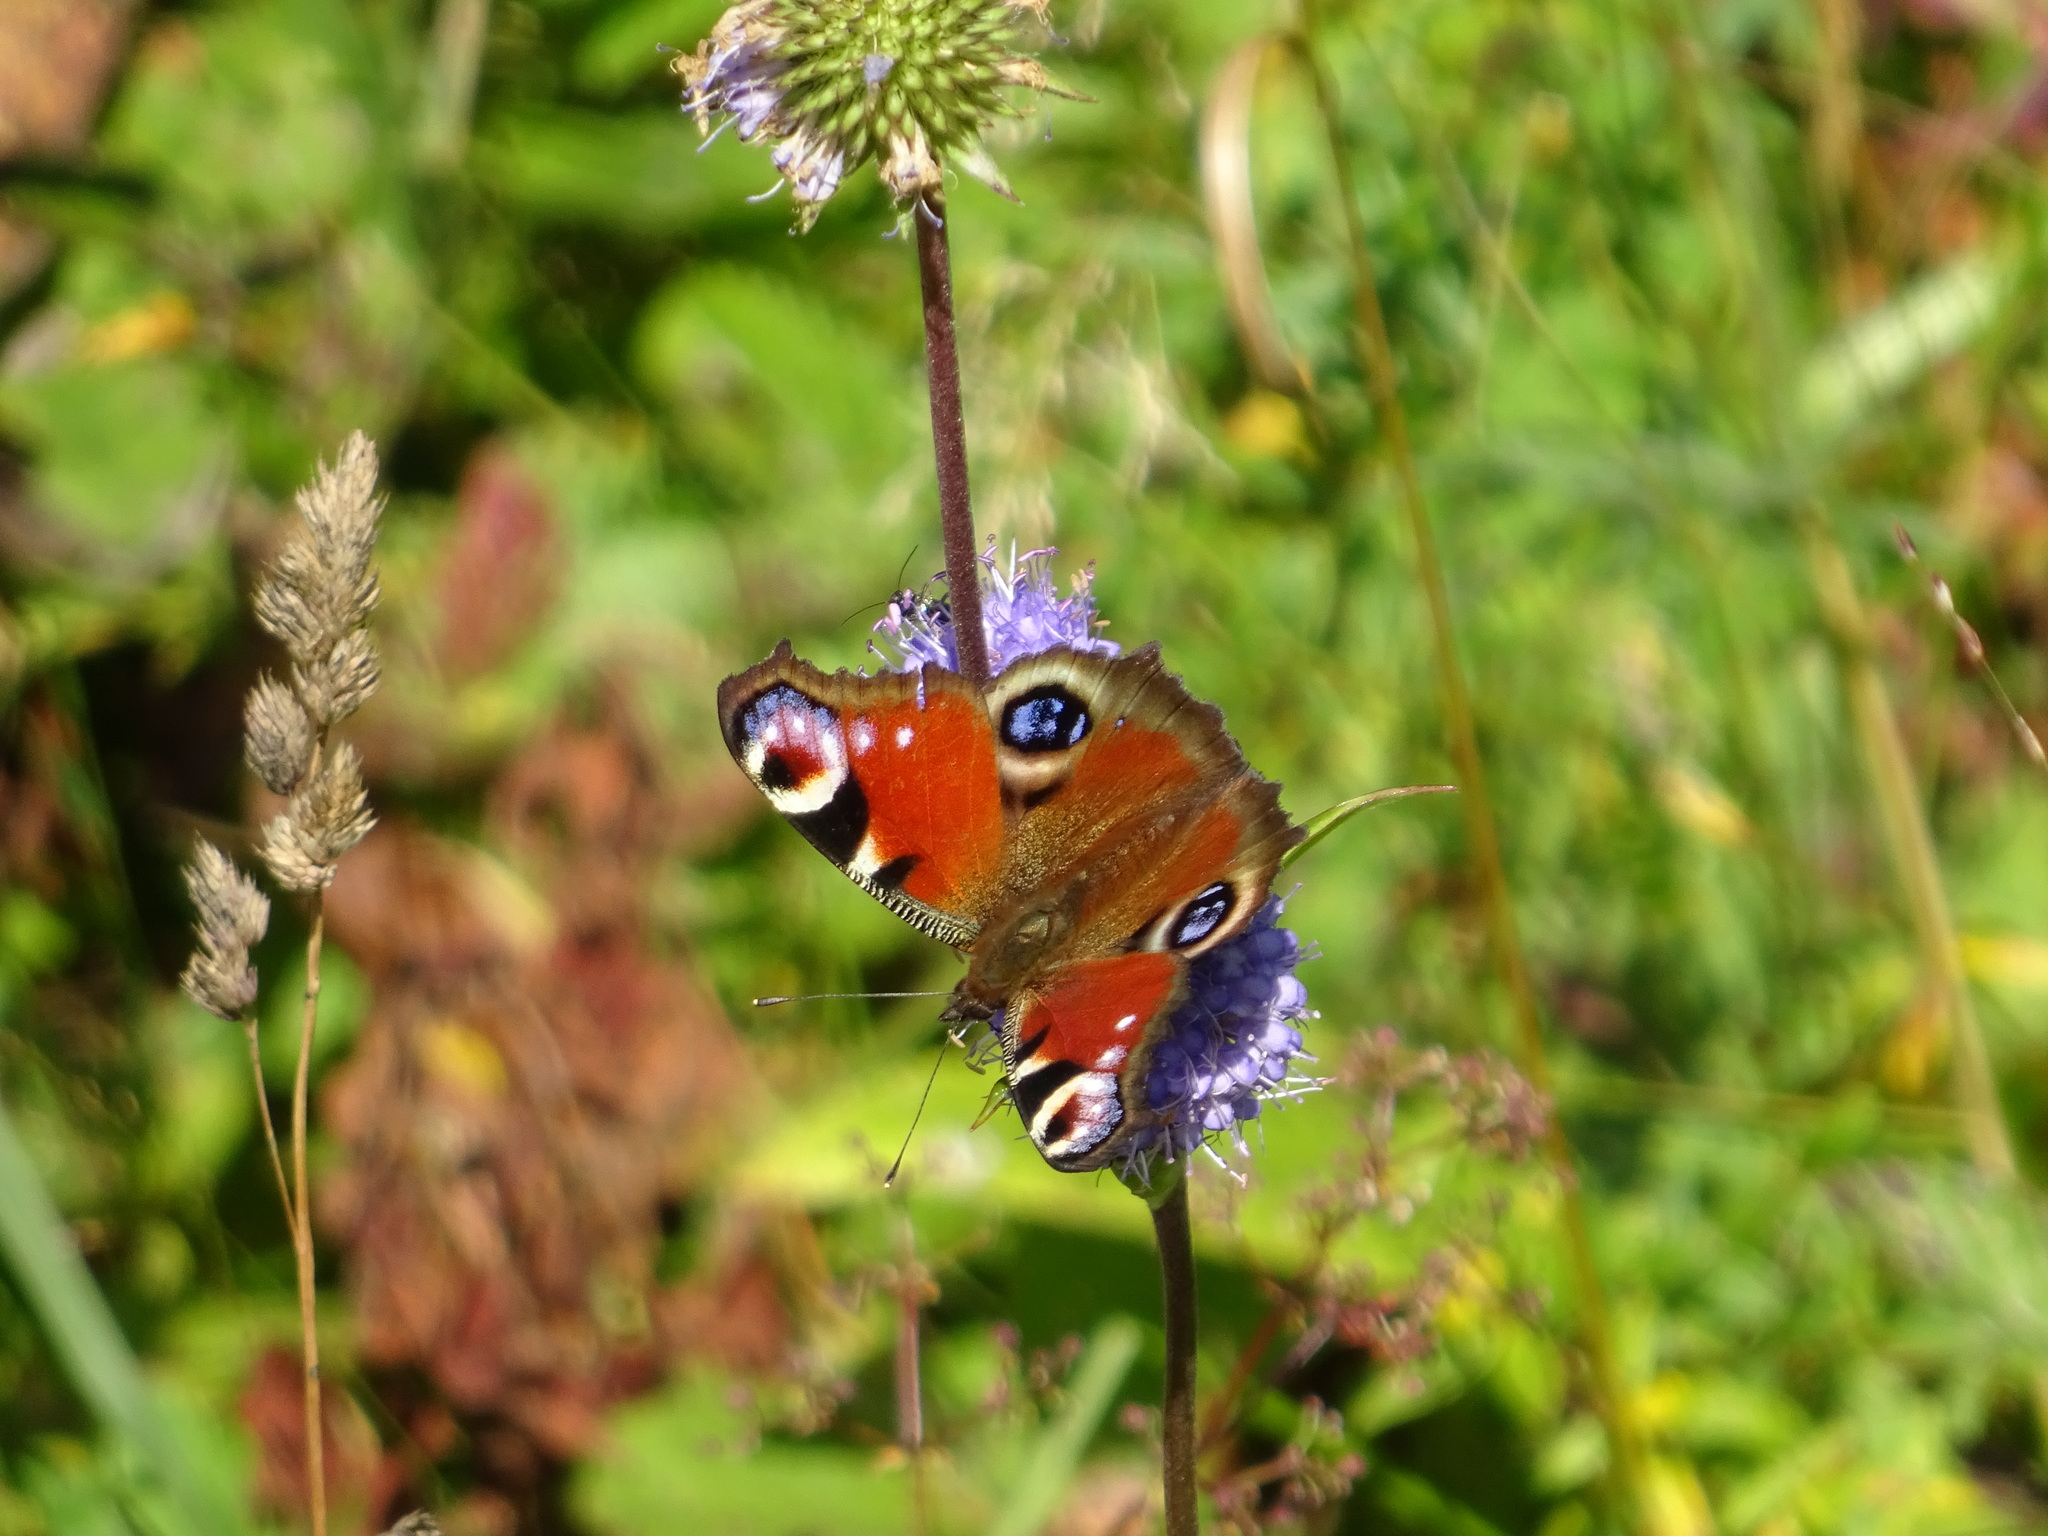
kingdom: Animalia
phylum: Arthropoda
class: Insecta
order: Lepidoptera
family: Nymphalidae
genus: Aglais
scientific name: Aglais io
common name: Peacock
